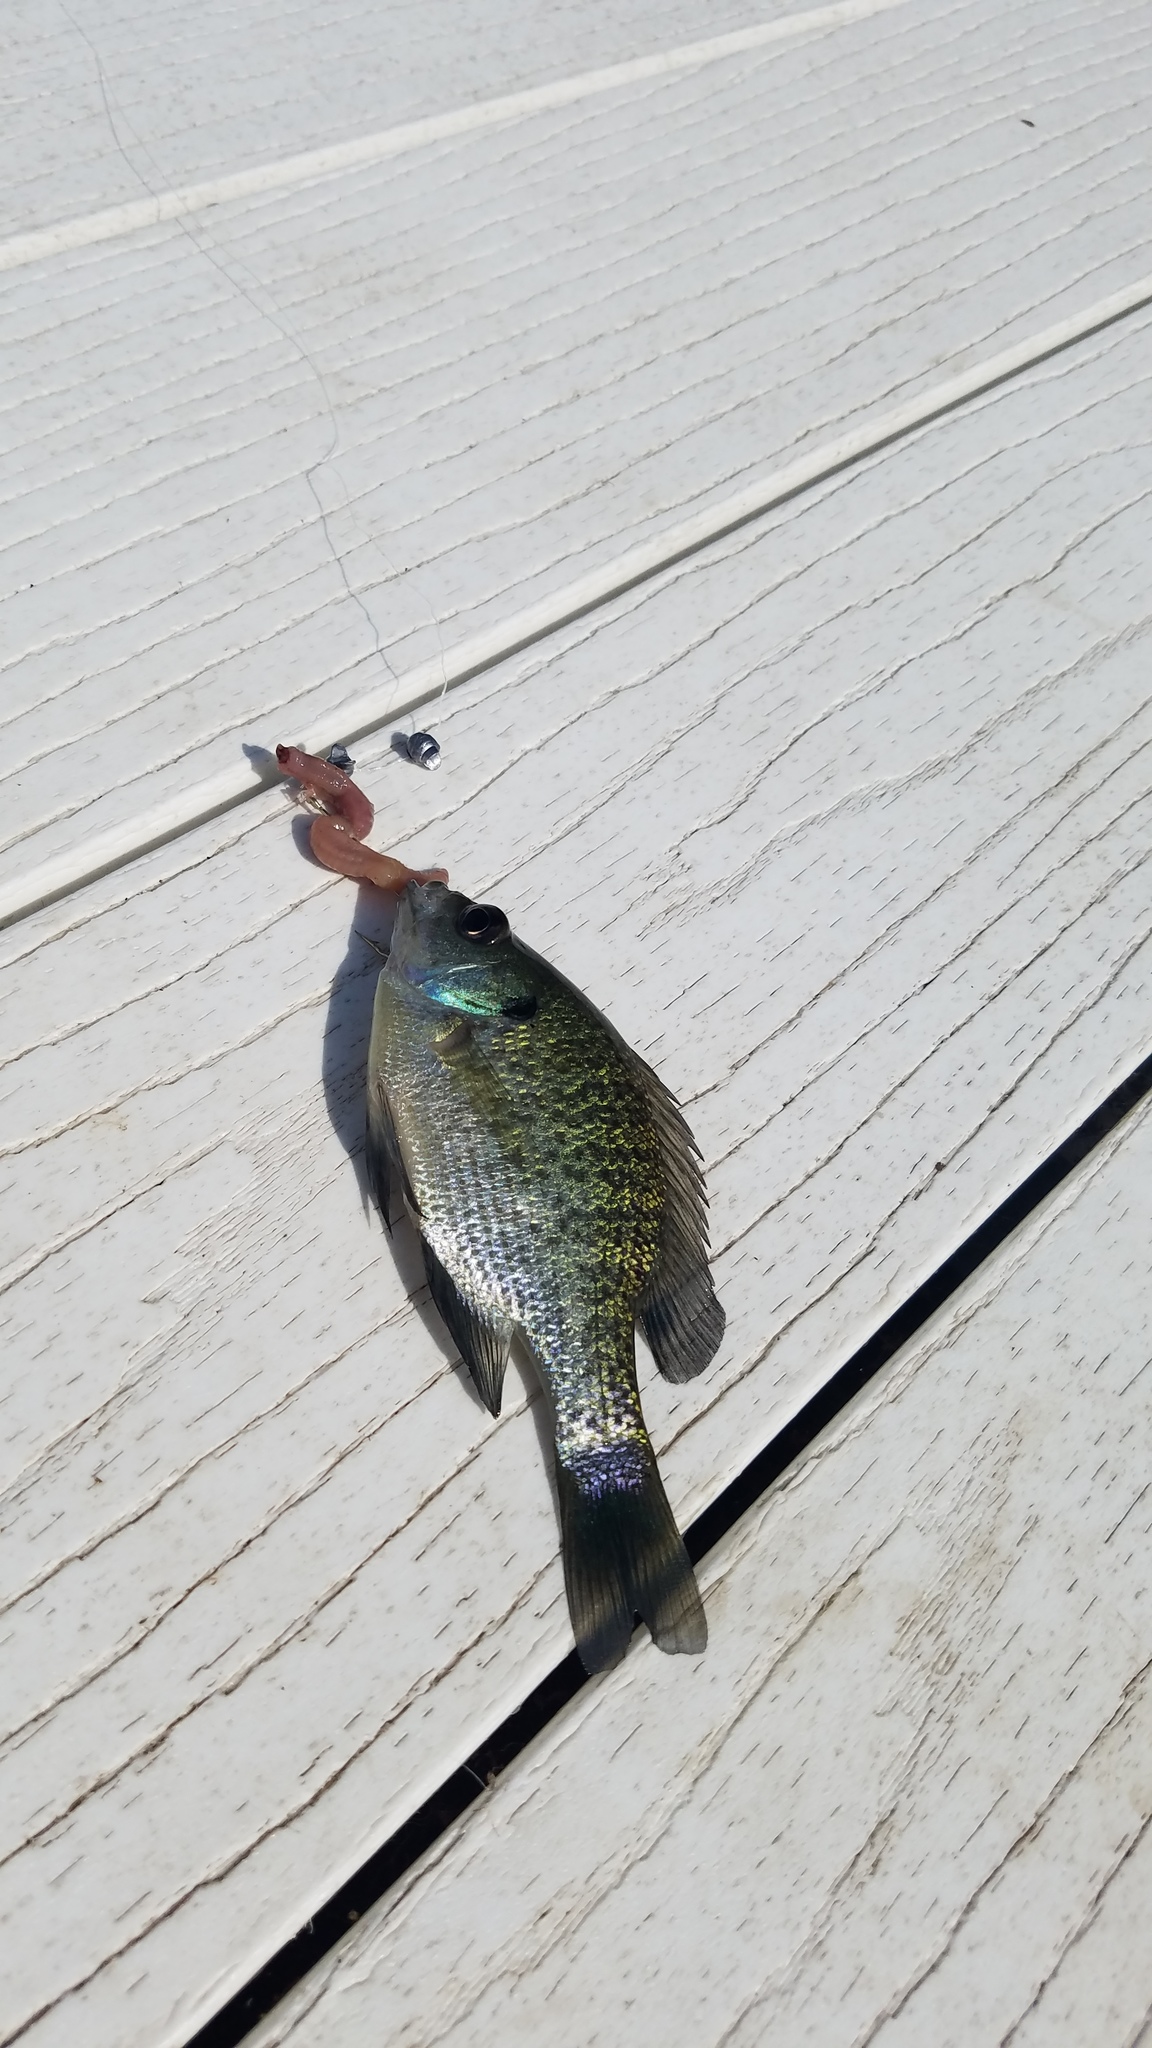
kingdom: Animalia
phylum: Chordata
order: Perciformes
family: Centrarchidae
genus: Lepomis
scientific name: Lepomis macrochirus
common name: Bluegill
